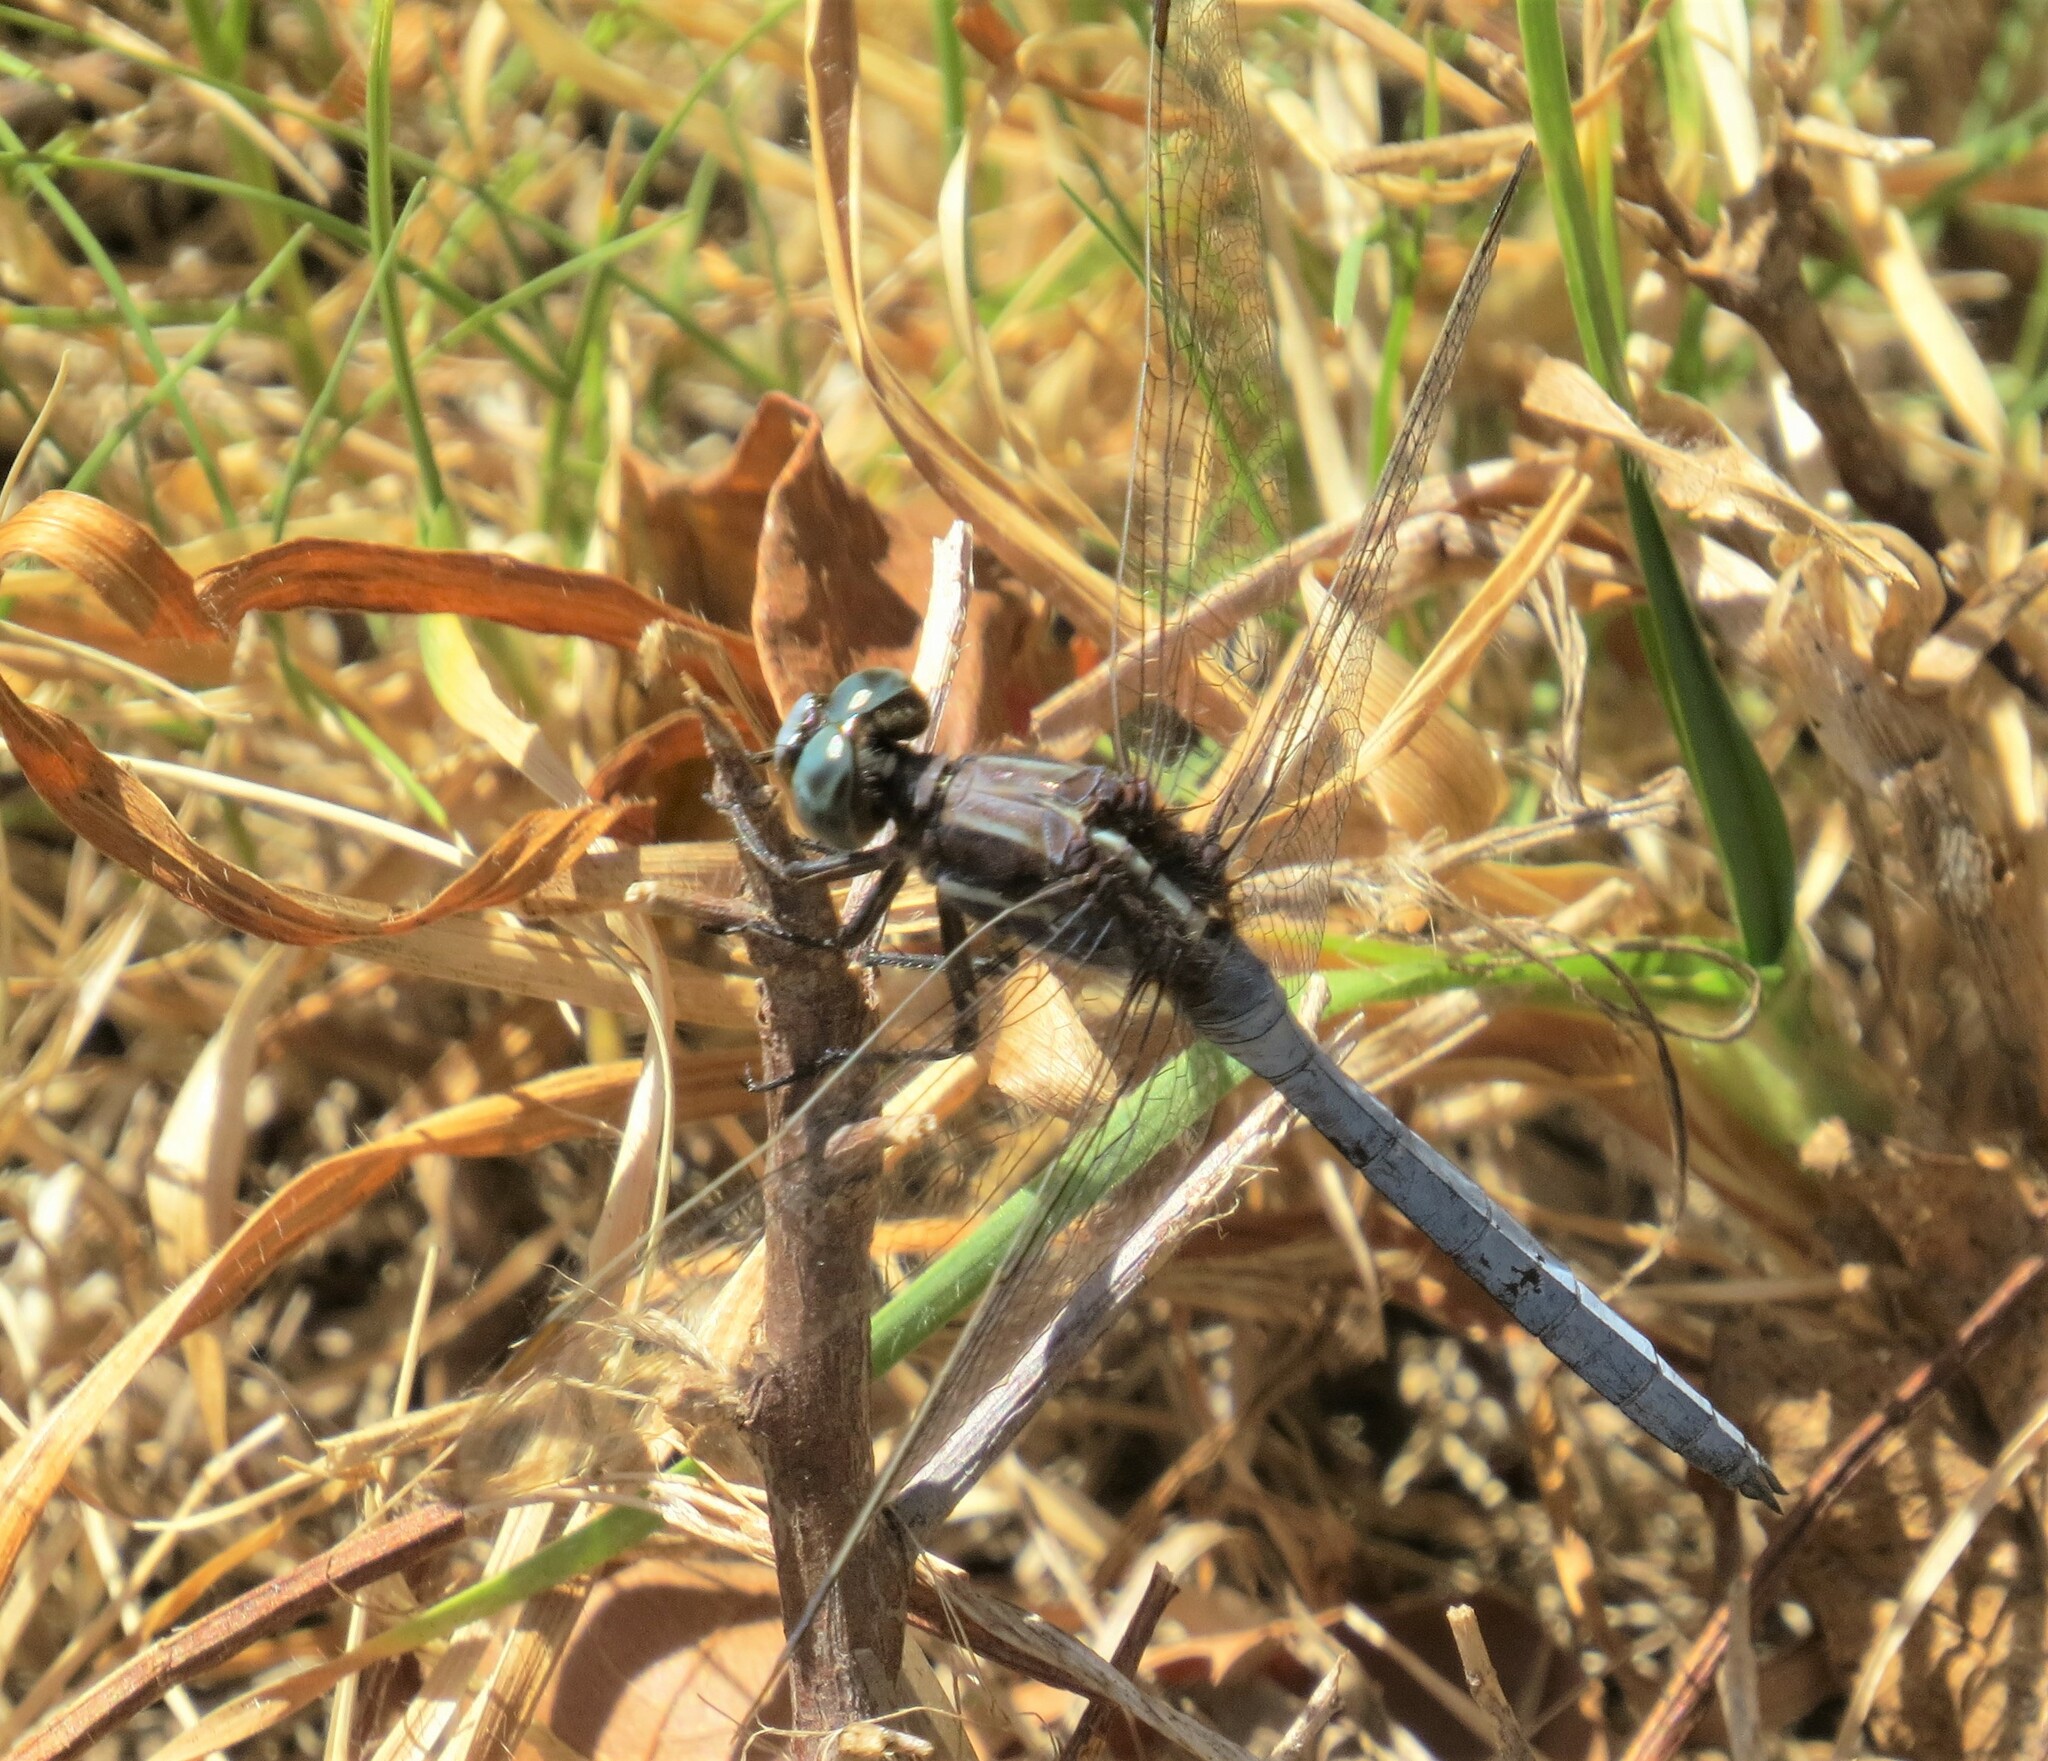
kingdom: Animalia
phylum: Arthropoda
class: Insecta
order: Odonata
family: Libellulidae
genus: Orthetrum
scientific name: Orthetrum caffrum
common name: Two-striped skimmer
